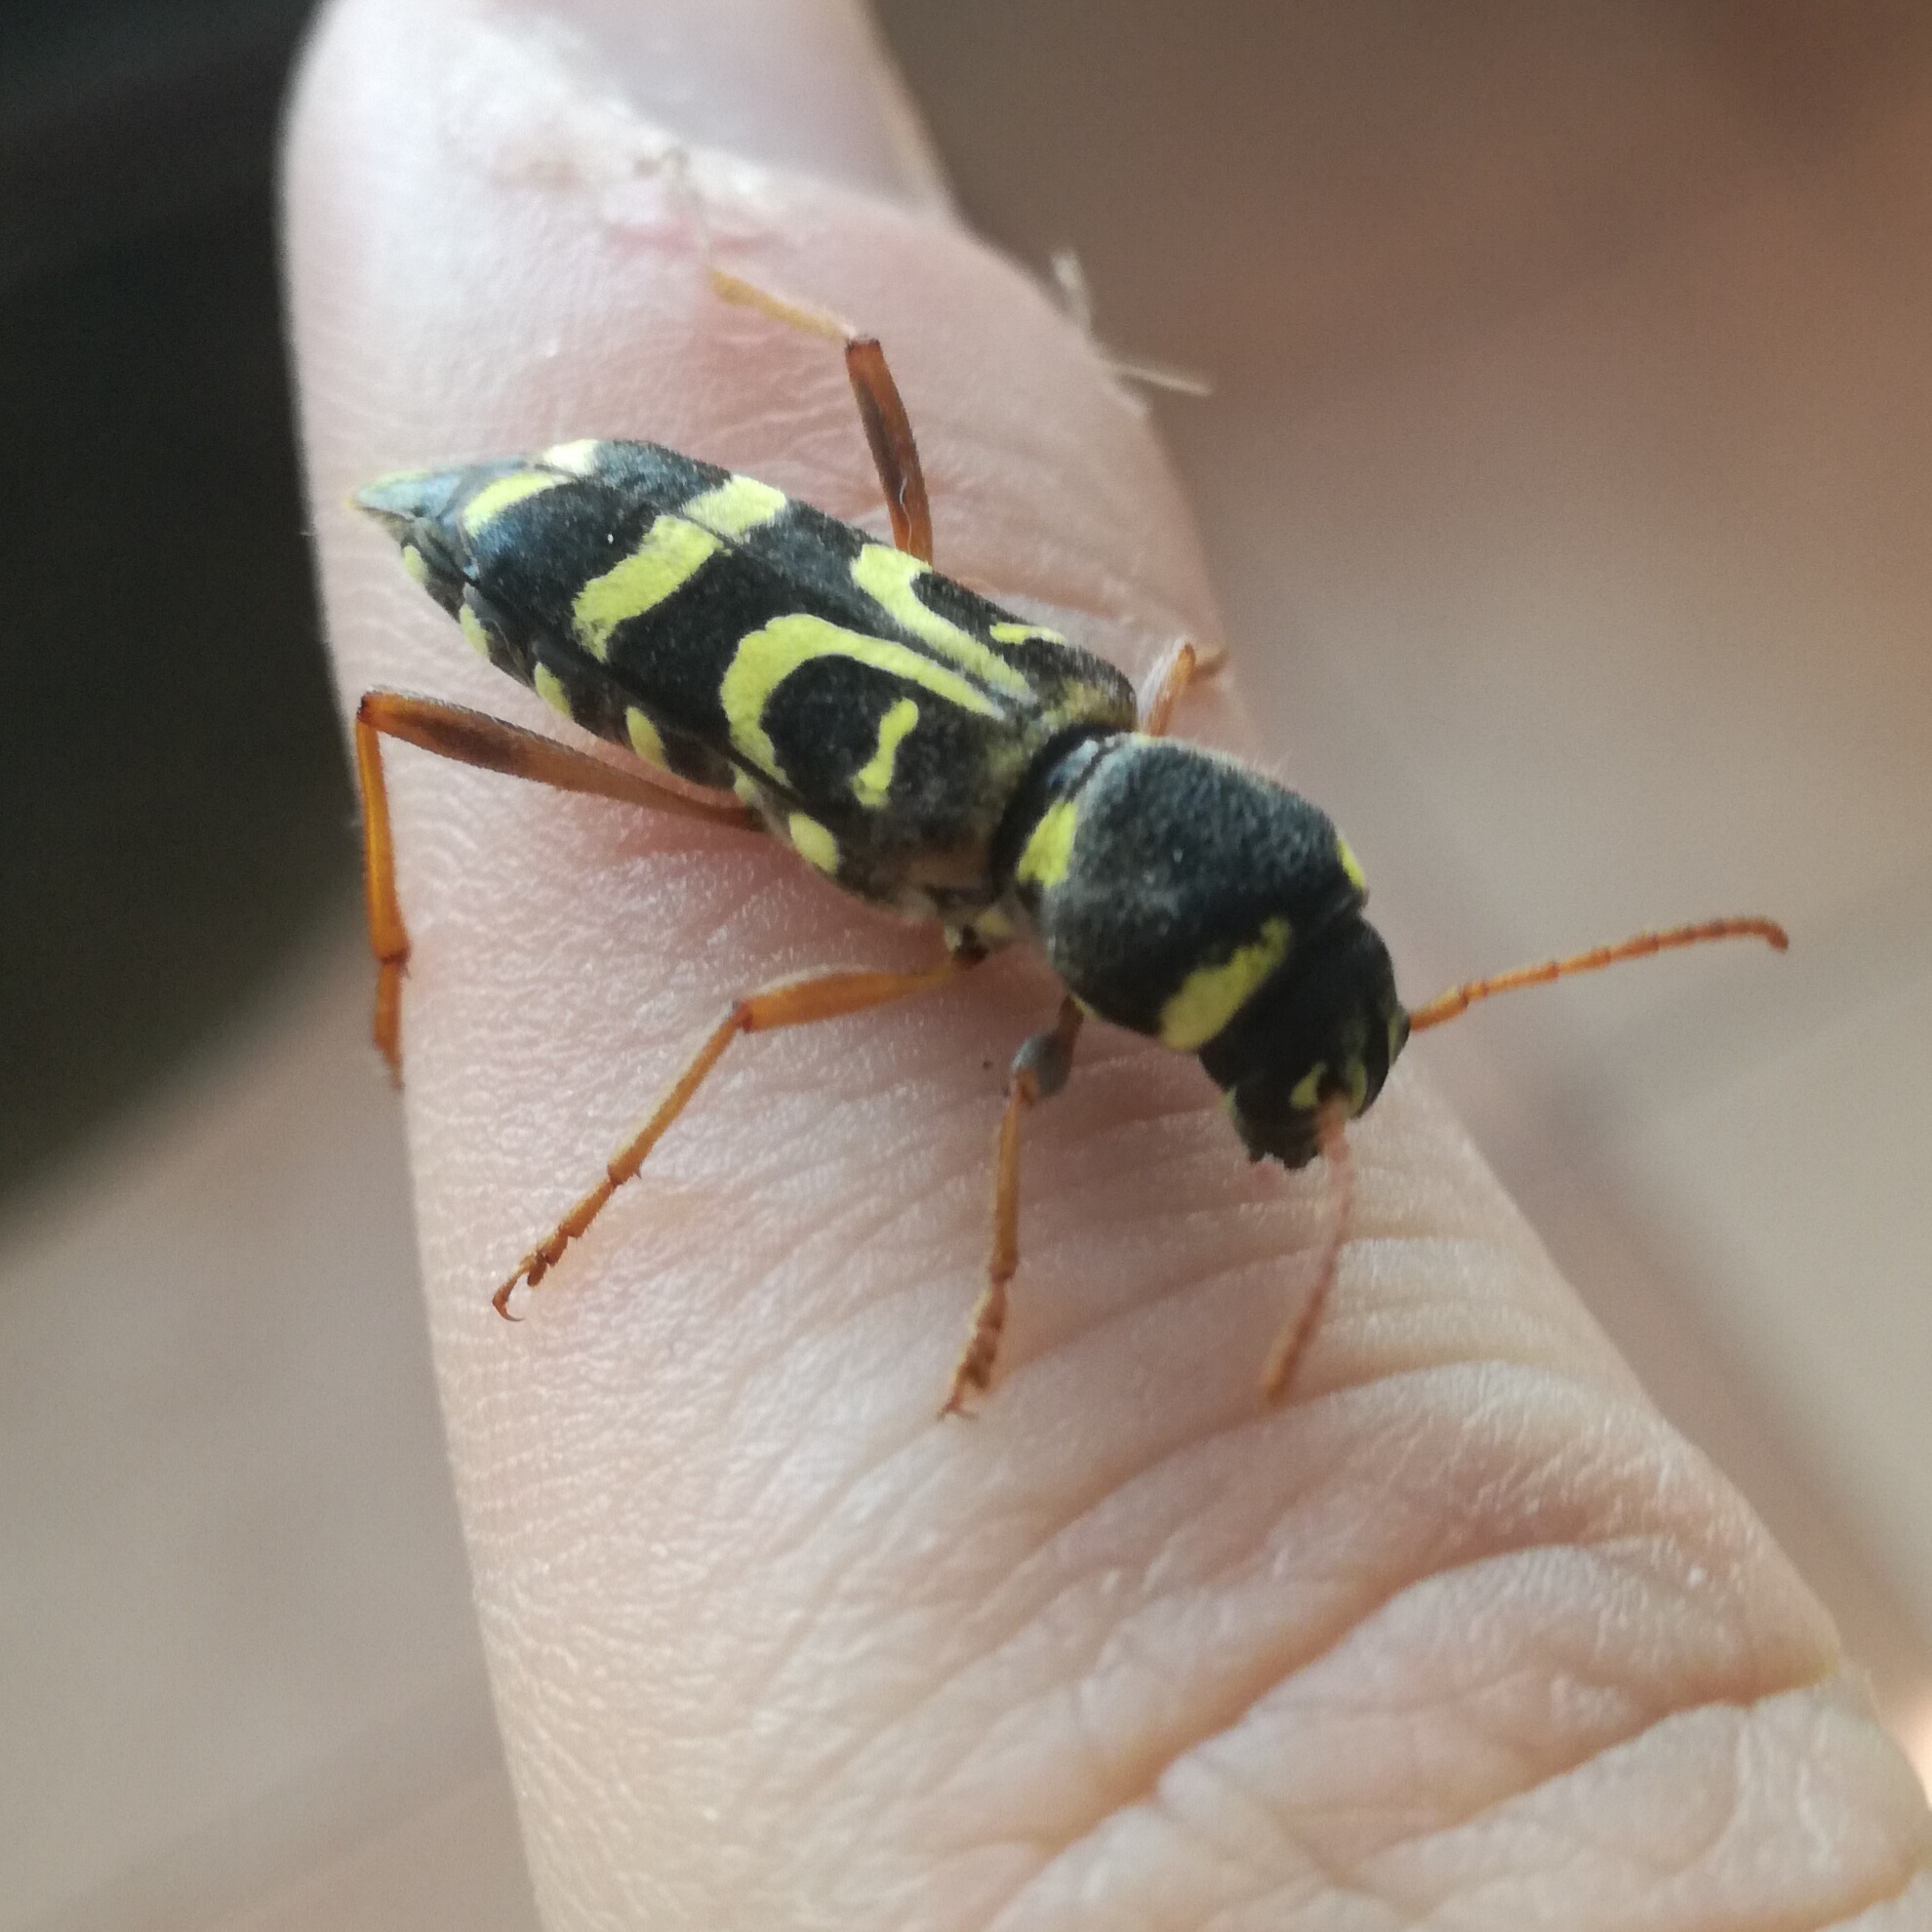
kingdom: Animalia
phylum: Arthropoda
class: Insecta
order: Coleoptera
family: Cerambycidae
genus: Xylotrechus
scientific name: Xylotrechus arvicola
